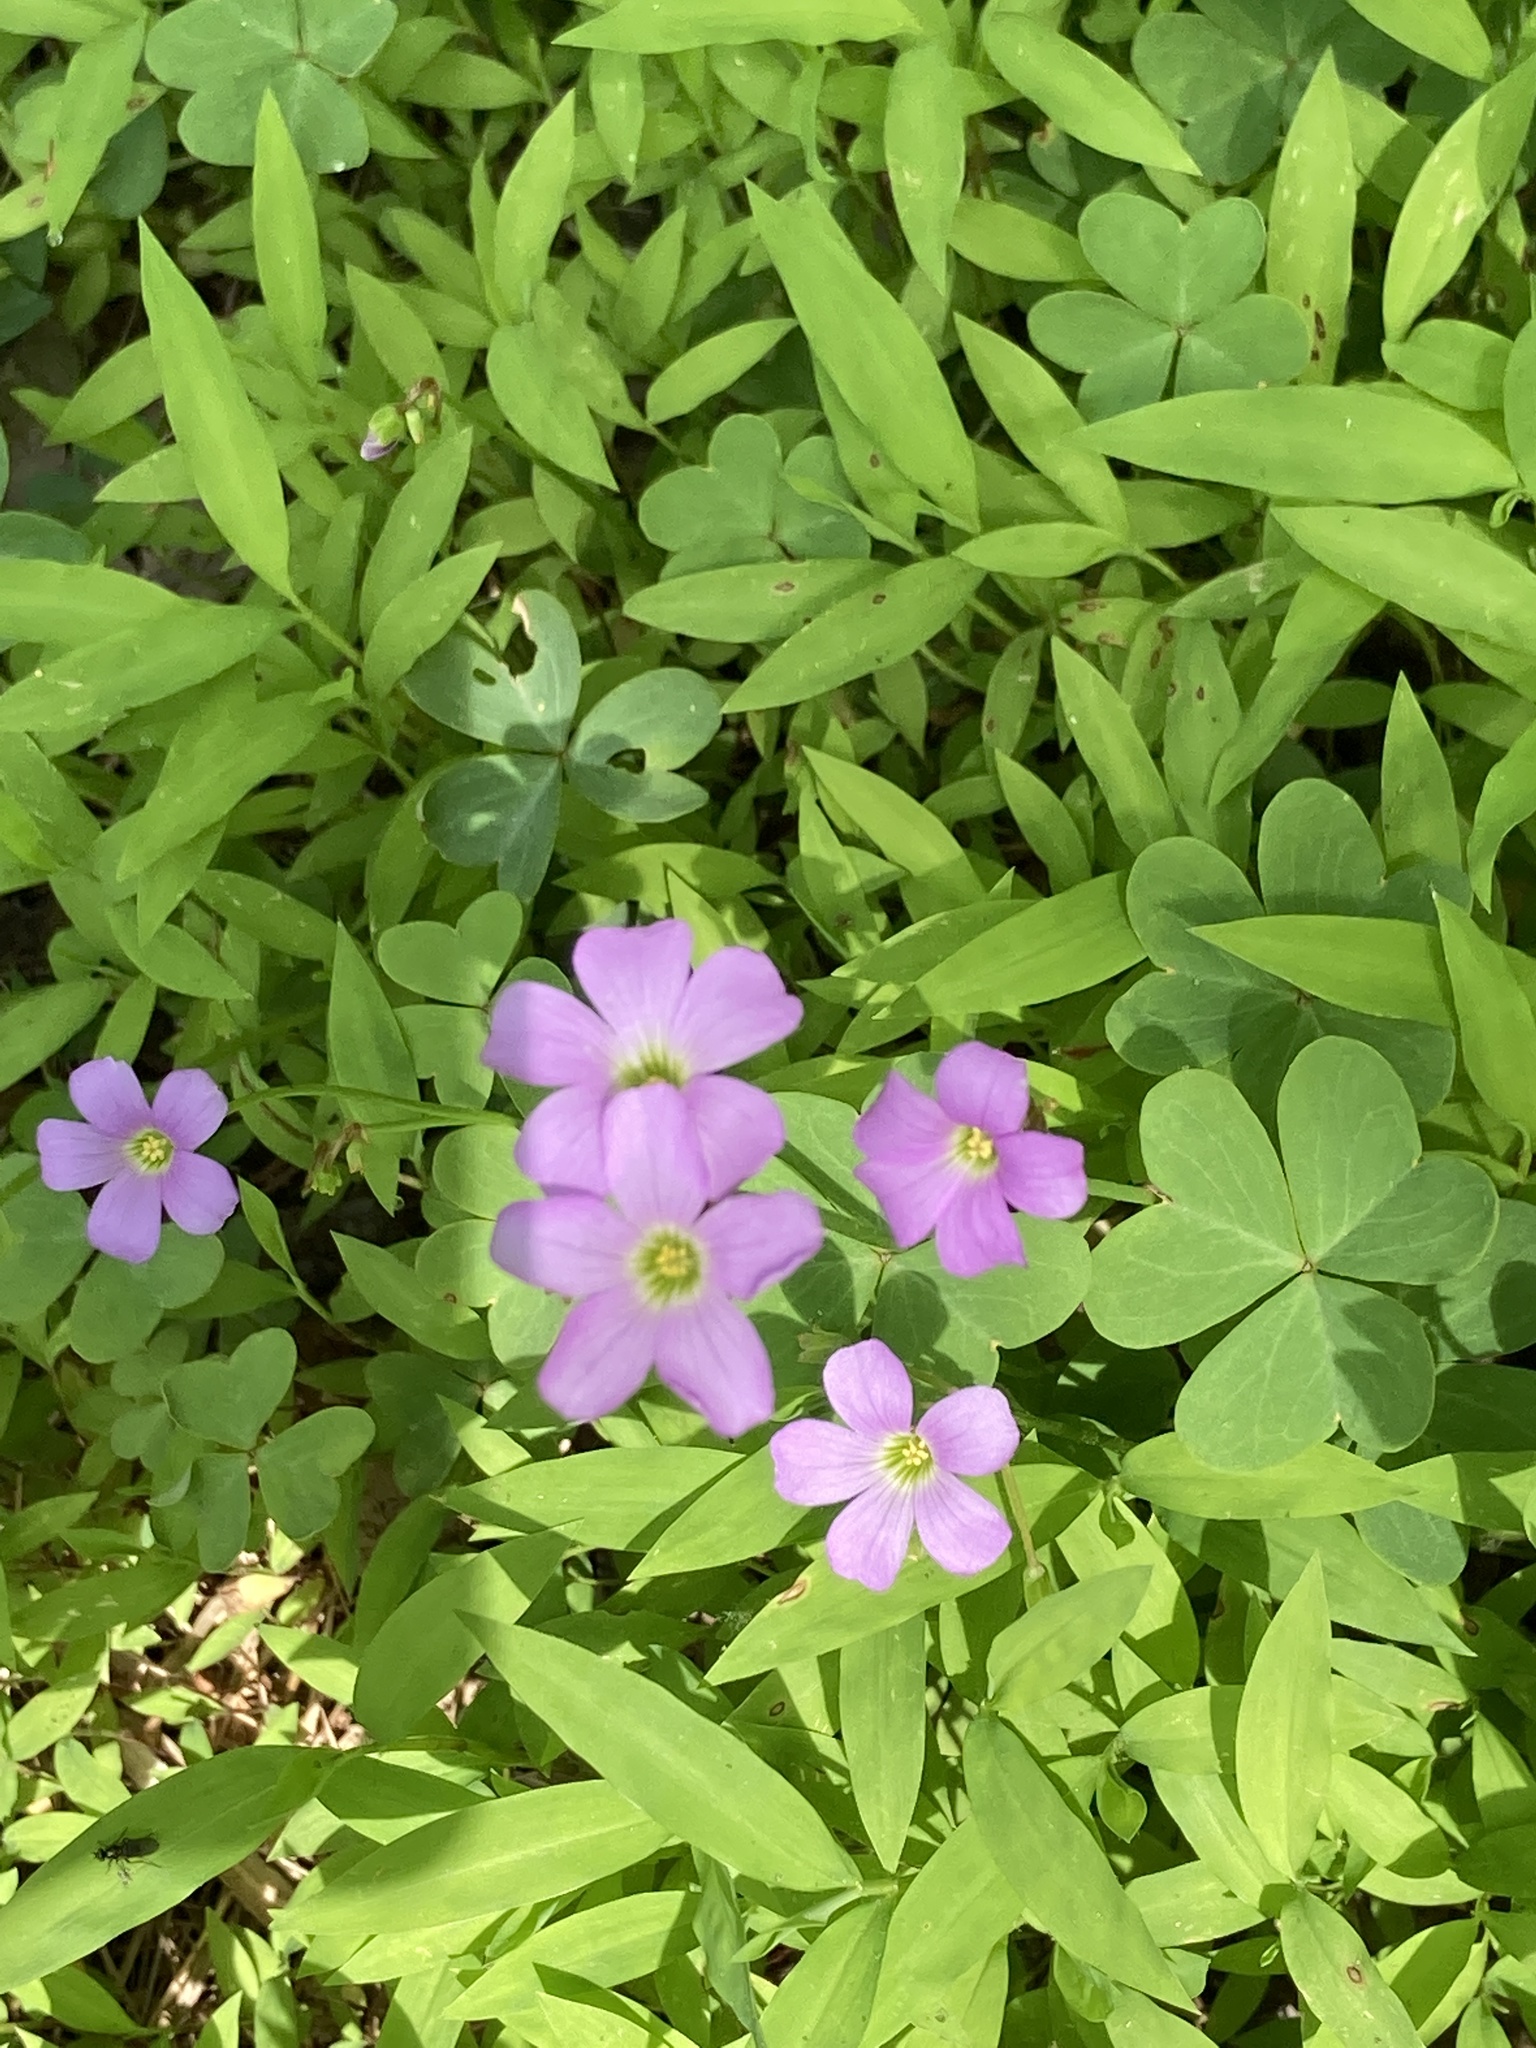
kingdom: Plantae
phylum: Tracheophyta
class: Magnoliopsida
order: Oxalidales
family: Oxalidaceae
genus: Oxalis
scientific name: Oxalis violacea
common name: Violet wood-sorrel
